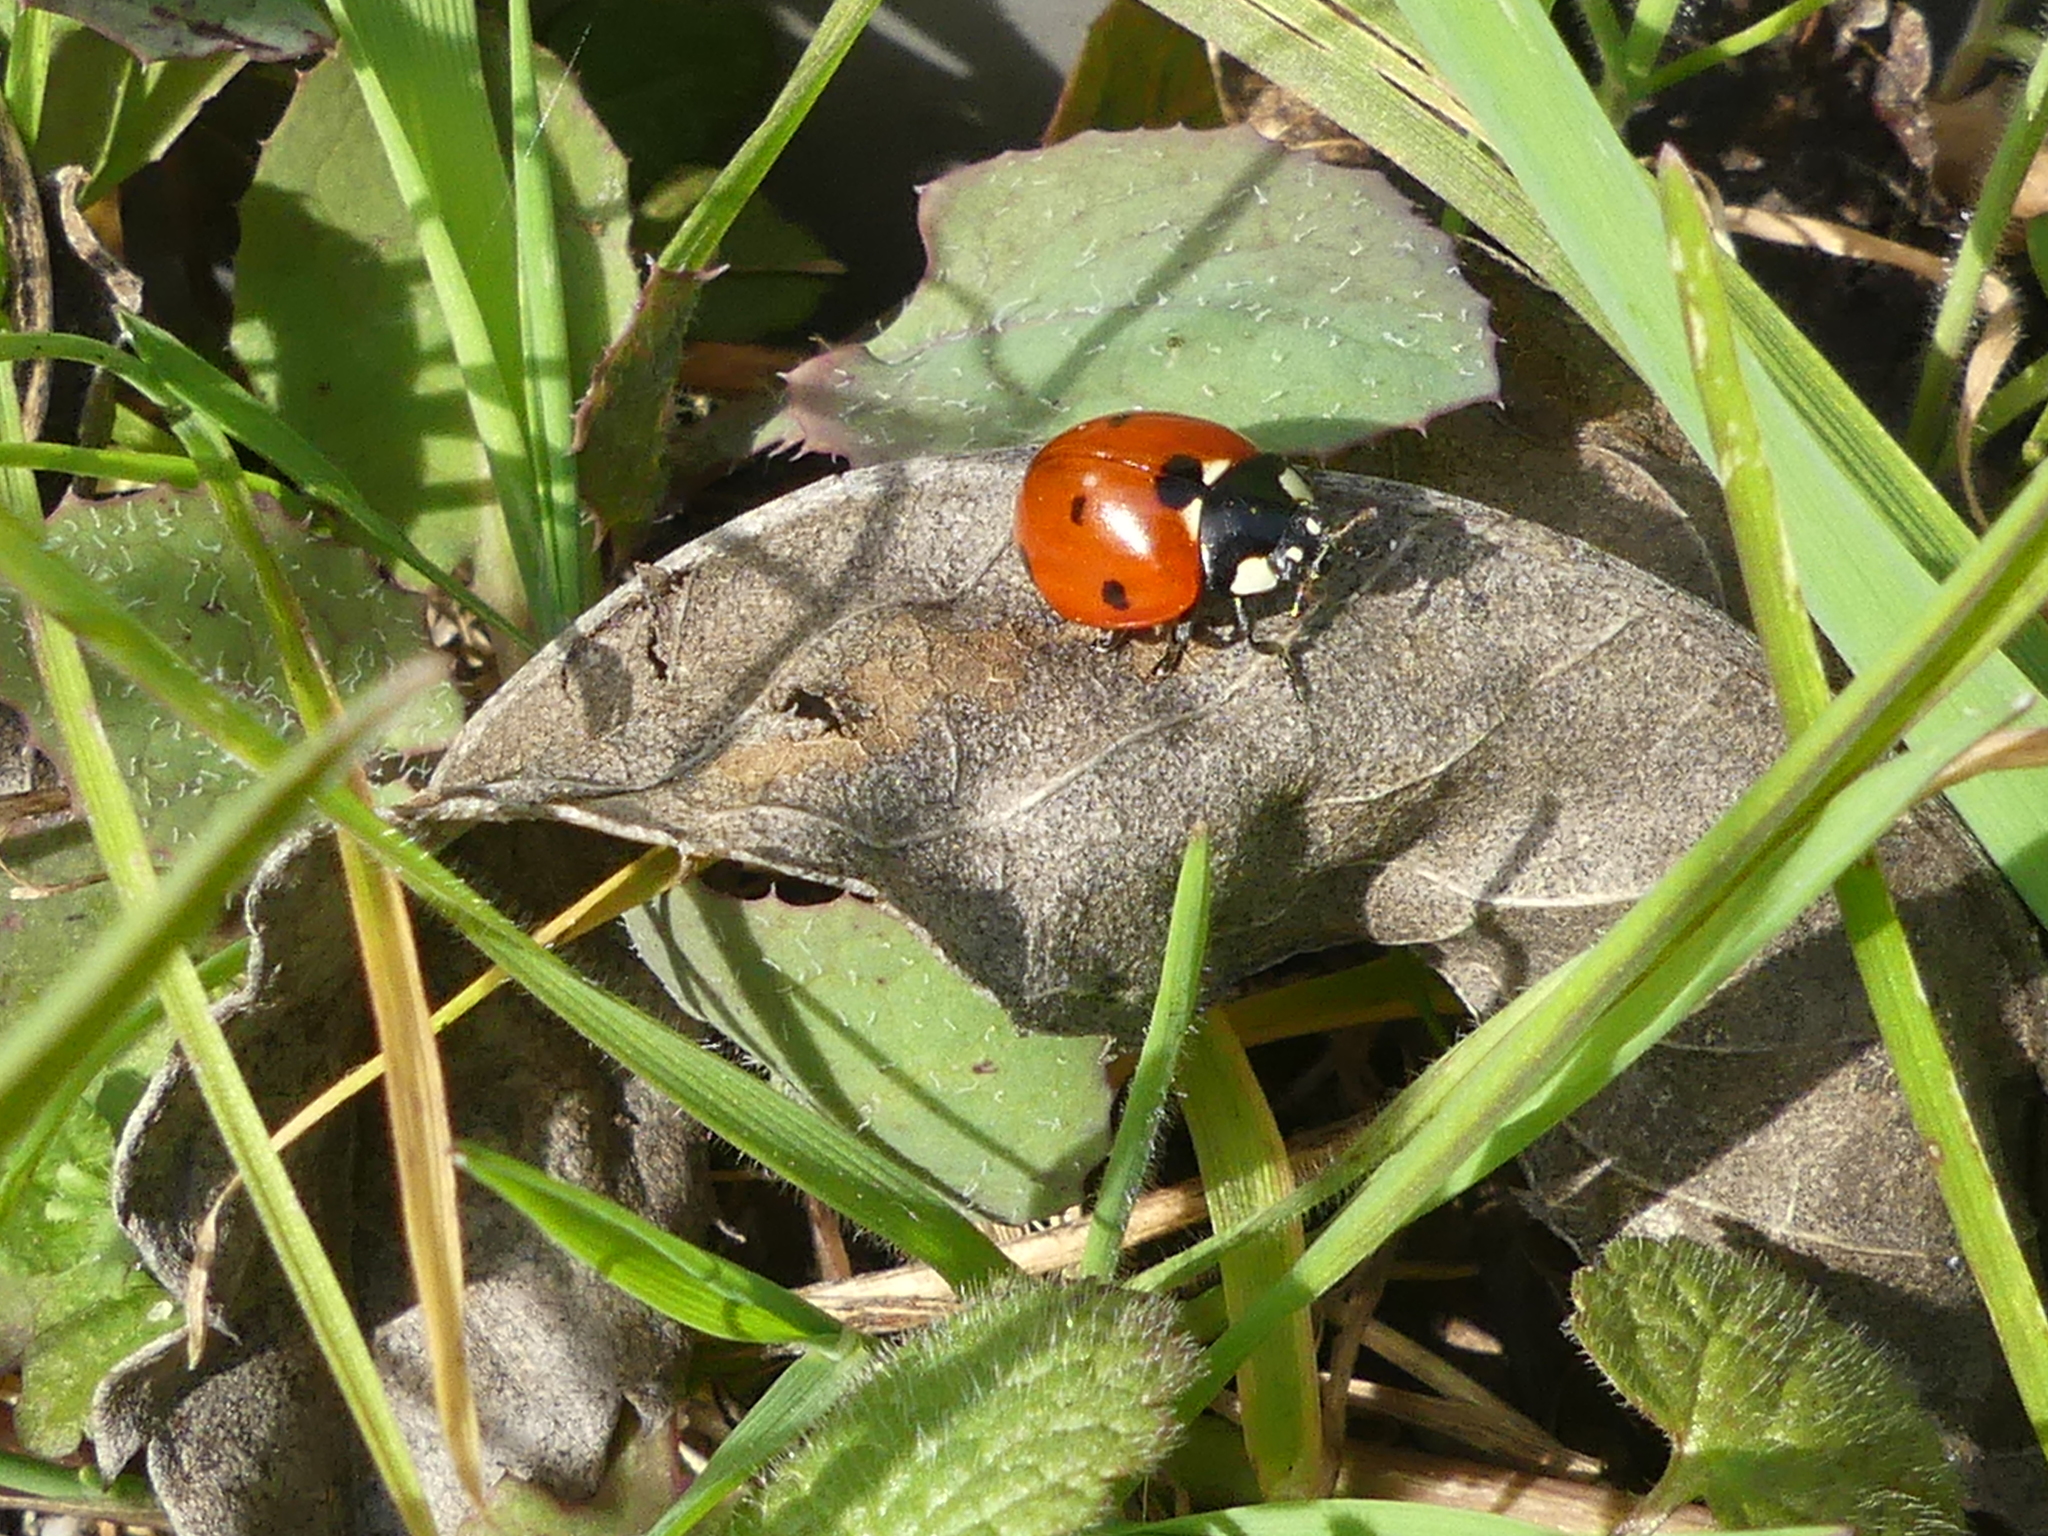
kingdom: Animalia
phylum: Arthropoda
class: Insecta
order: Coleoptera
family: Coccinellidae
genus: Coccinella
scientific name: Coccinella septempunctata
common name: Sevenspotted lady beetle
